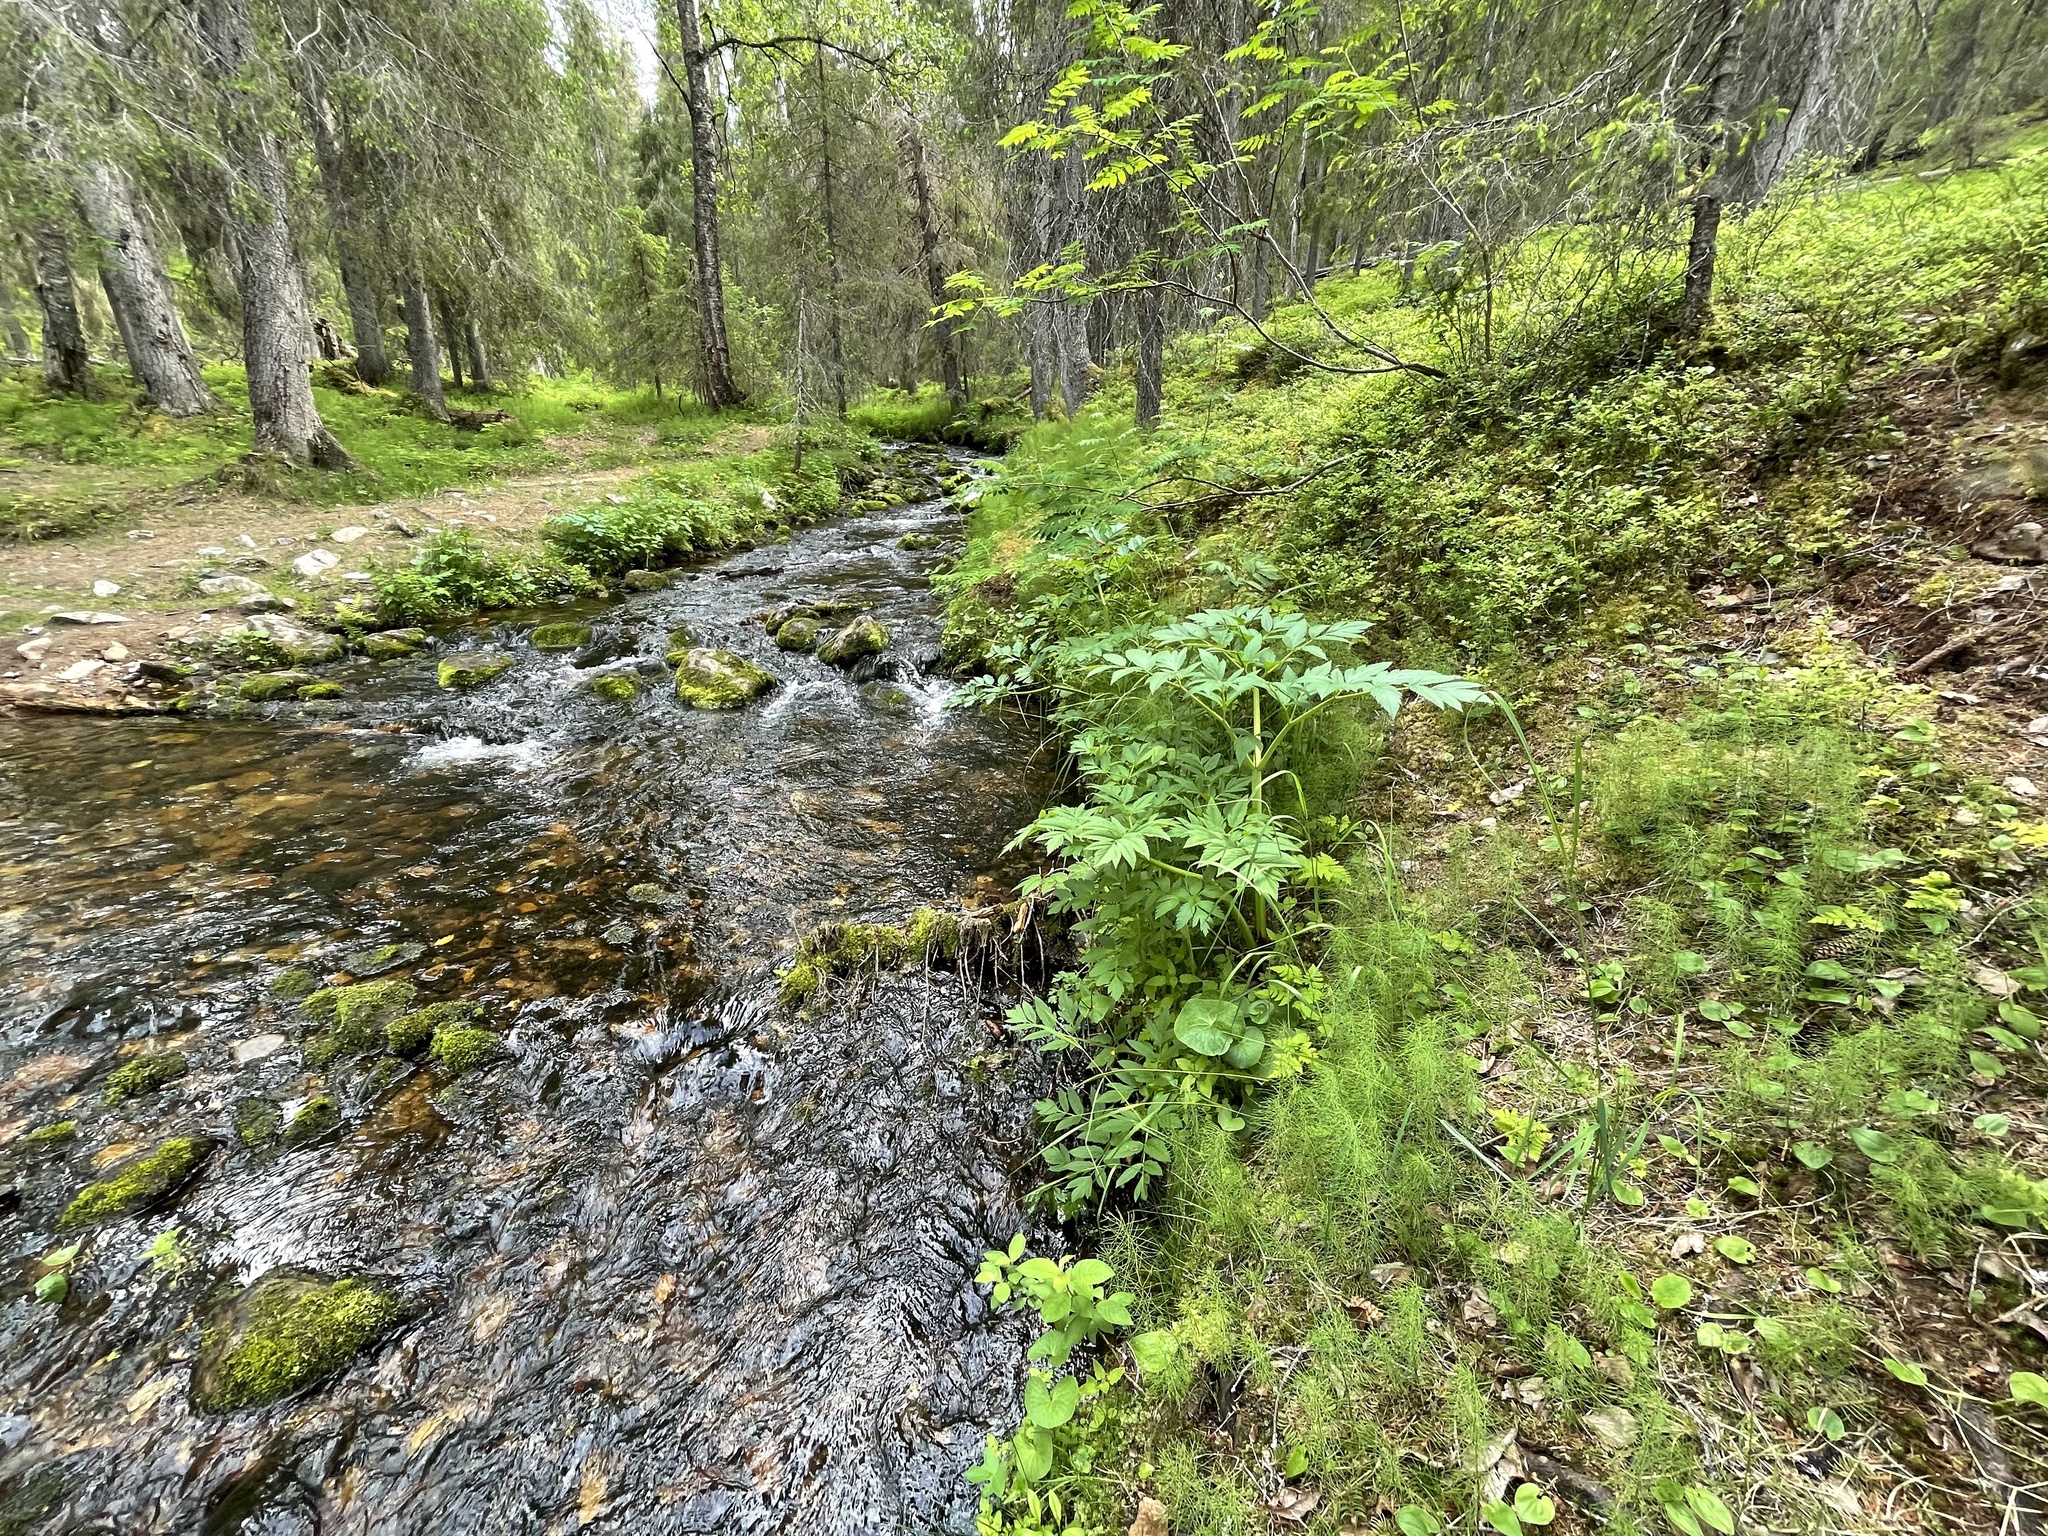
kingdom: Plantae
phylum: Tracheophyta
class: Magnoliopsida
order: Apiales
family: Apiaceae
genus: Angelica
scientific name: Angelica archangelica
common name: Garden angelica
